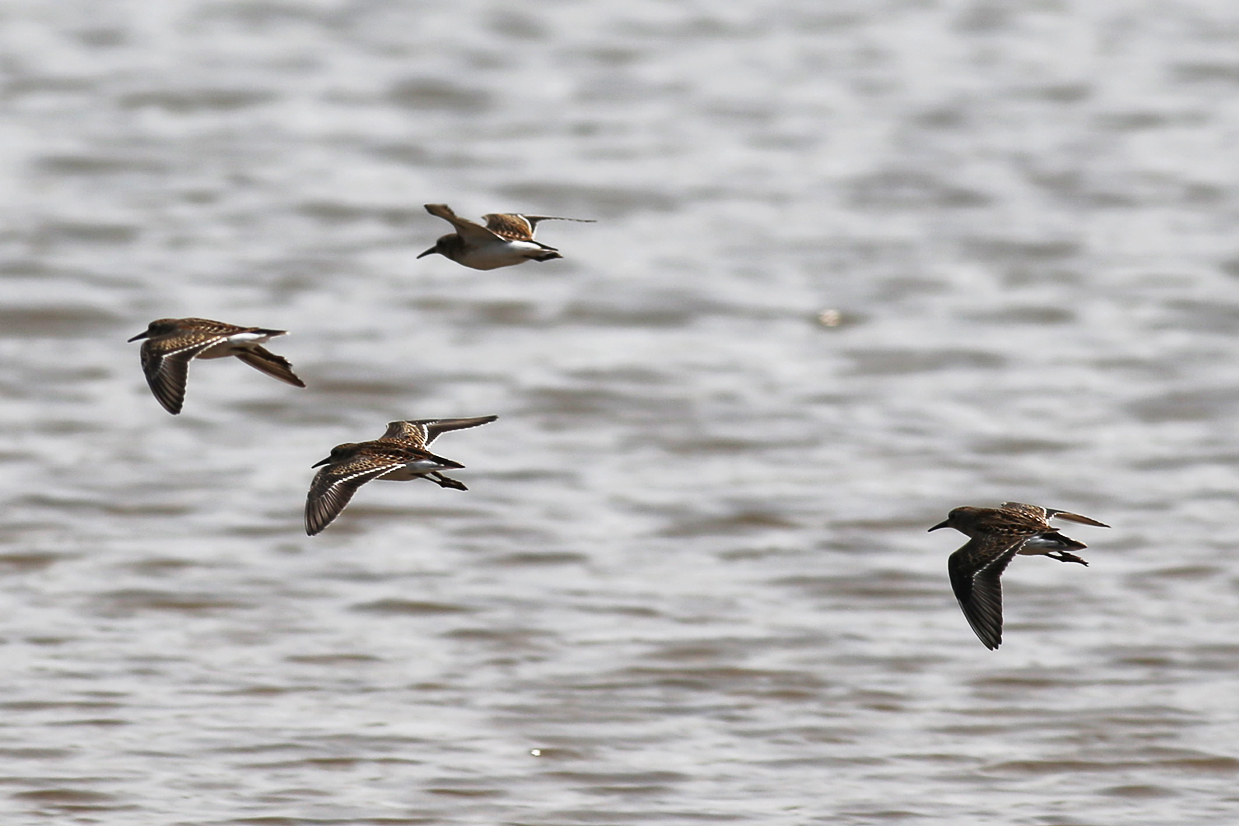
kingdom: Animalia
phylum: Chordata
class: Aves
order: Charadriiformes
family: Scolopacidae
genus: Calidris
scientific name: Calidris minutilla
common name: Least sandpiper
